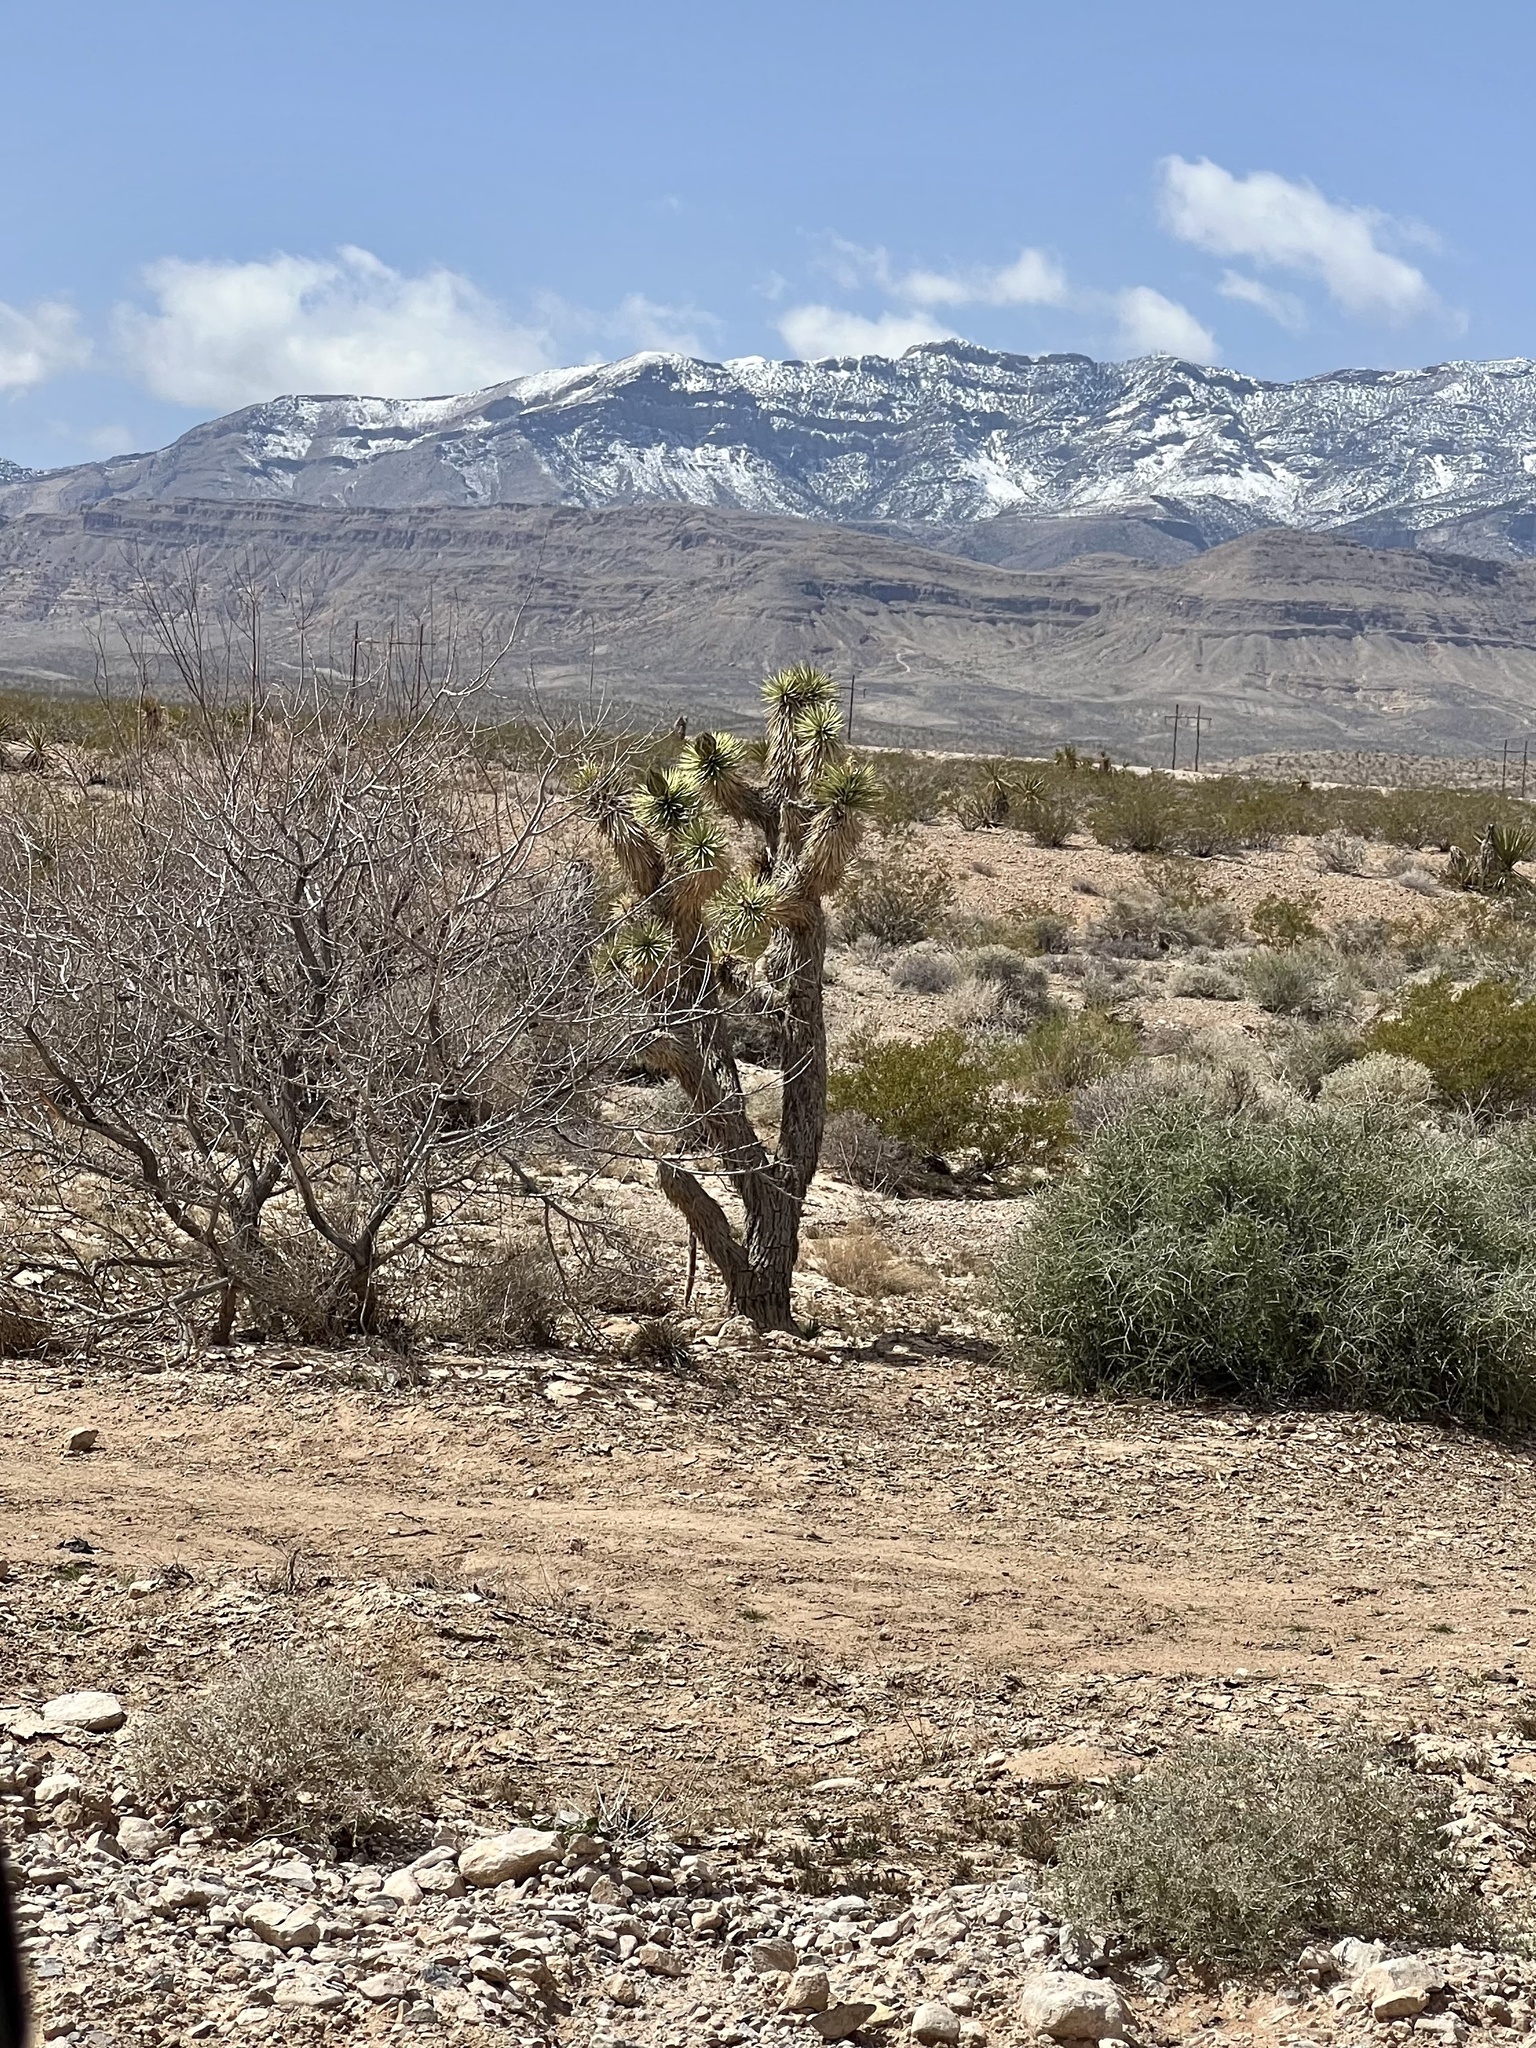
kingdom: Plantae
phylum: Tracheophyta
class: Liliopsida
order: Asparagales
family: Asparagaceae
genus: Yucca
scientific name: Yucca brevifolia
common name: Joshua tree
